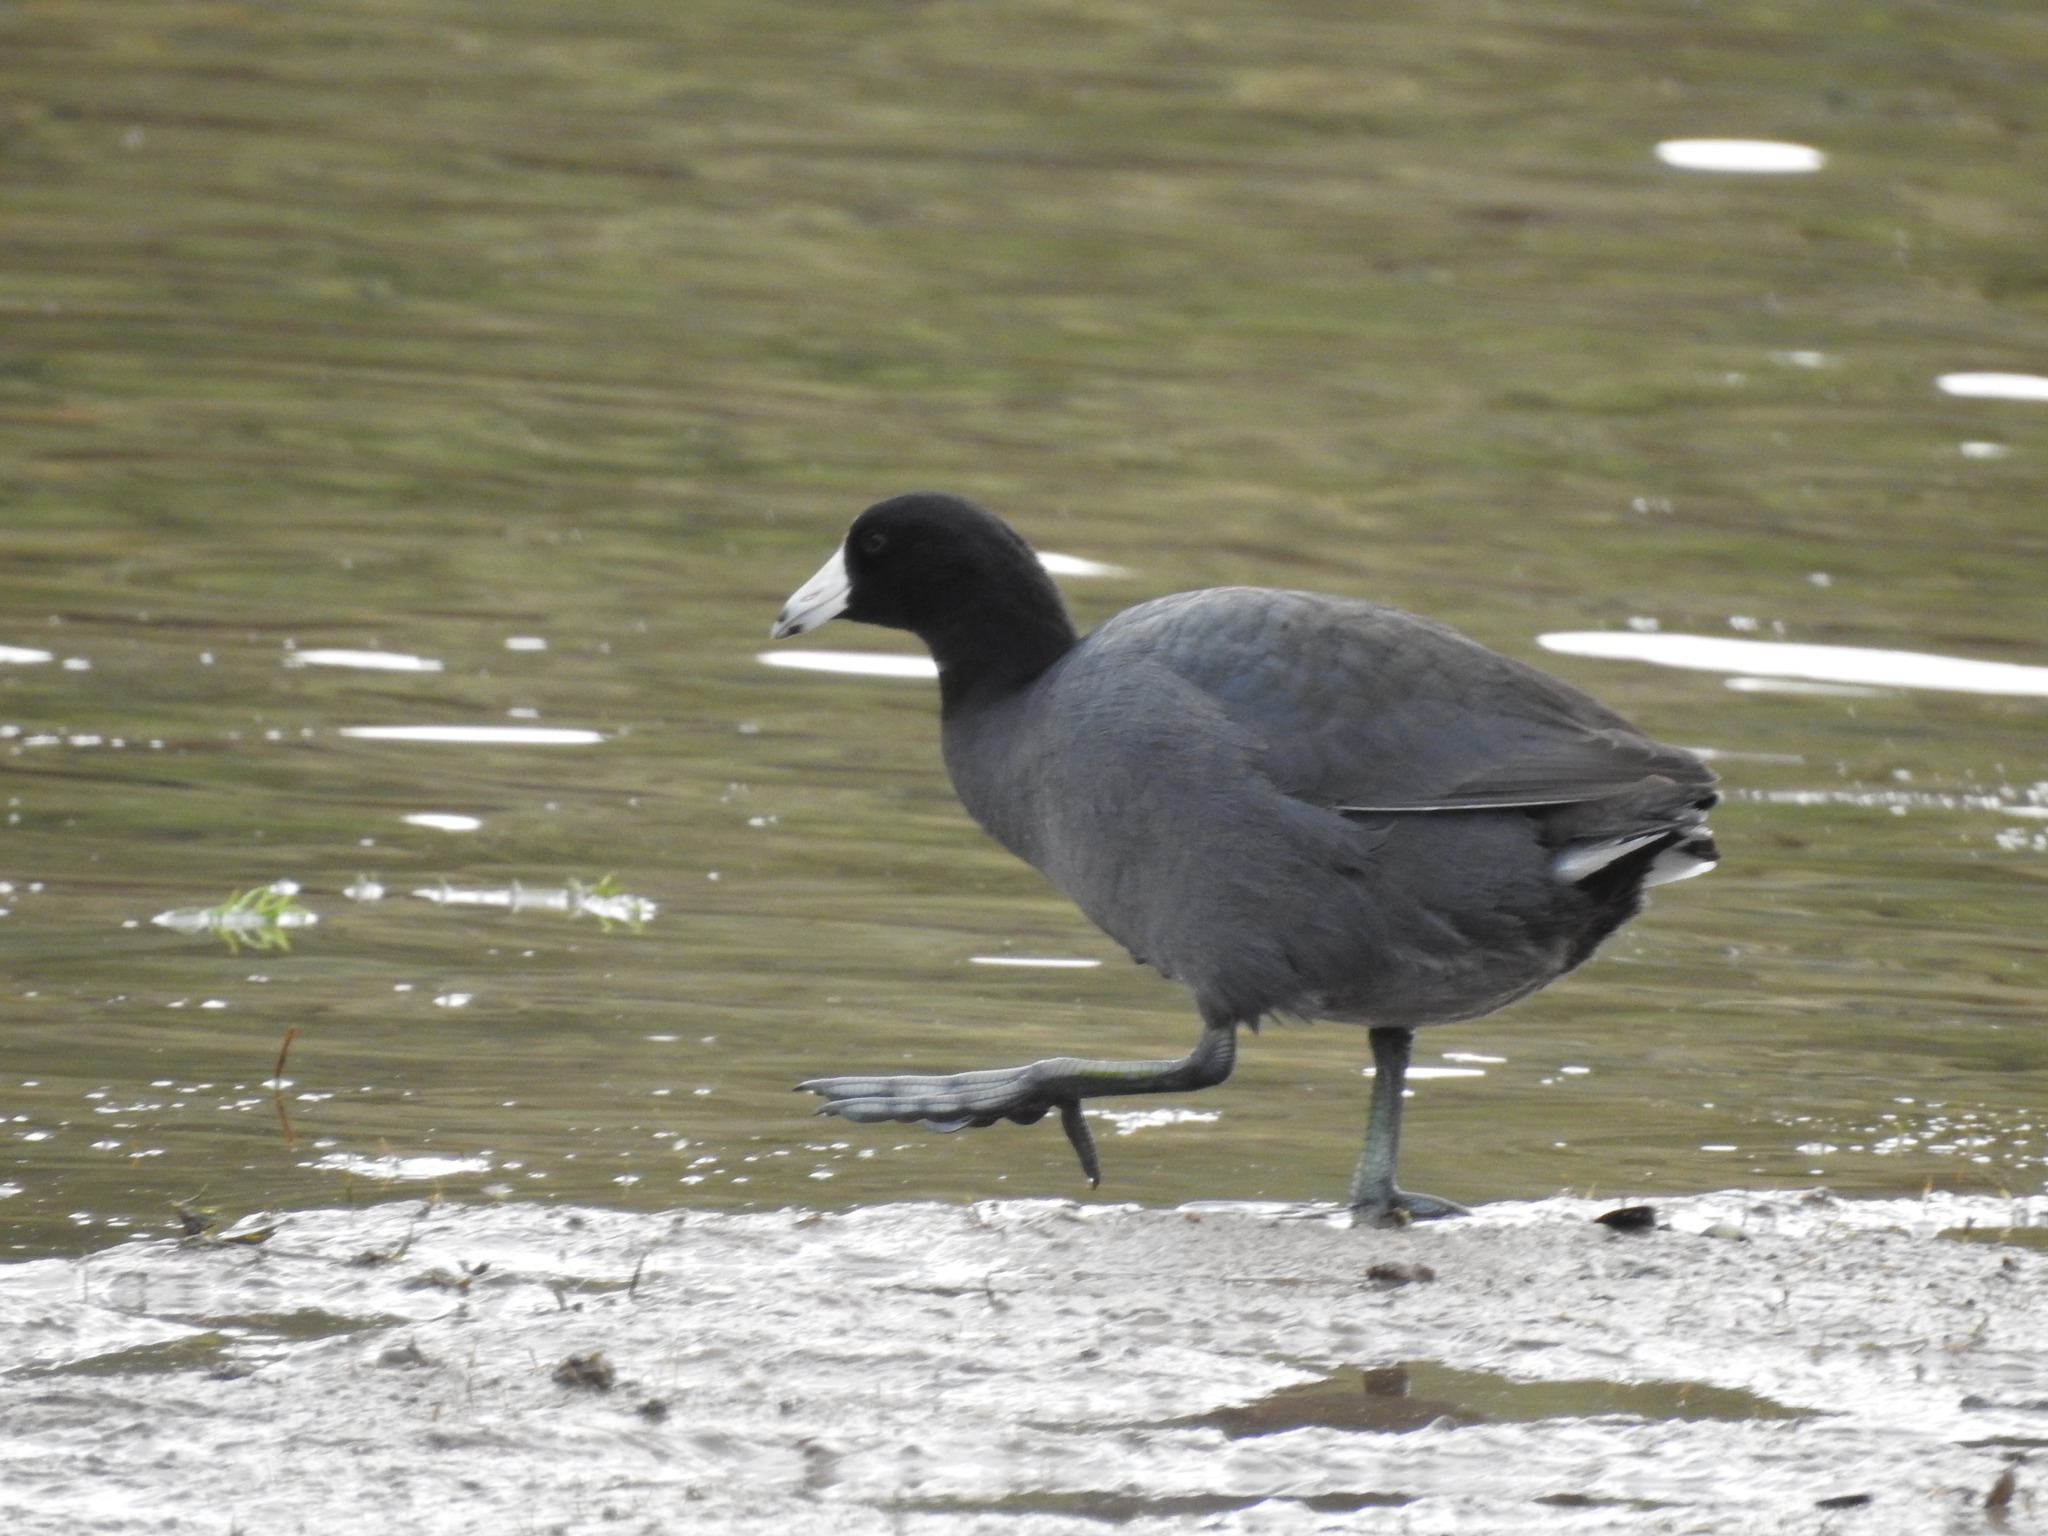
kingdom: Animalia
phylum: Chordata
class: Aves
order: Gruiformes
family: Rallidae
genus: Fulica
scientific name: Fulica americana
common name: American coot
